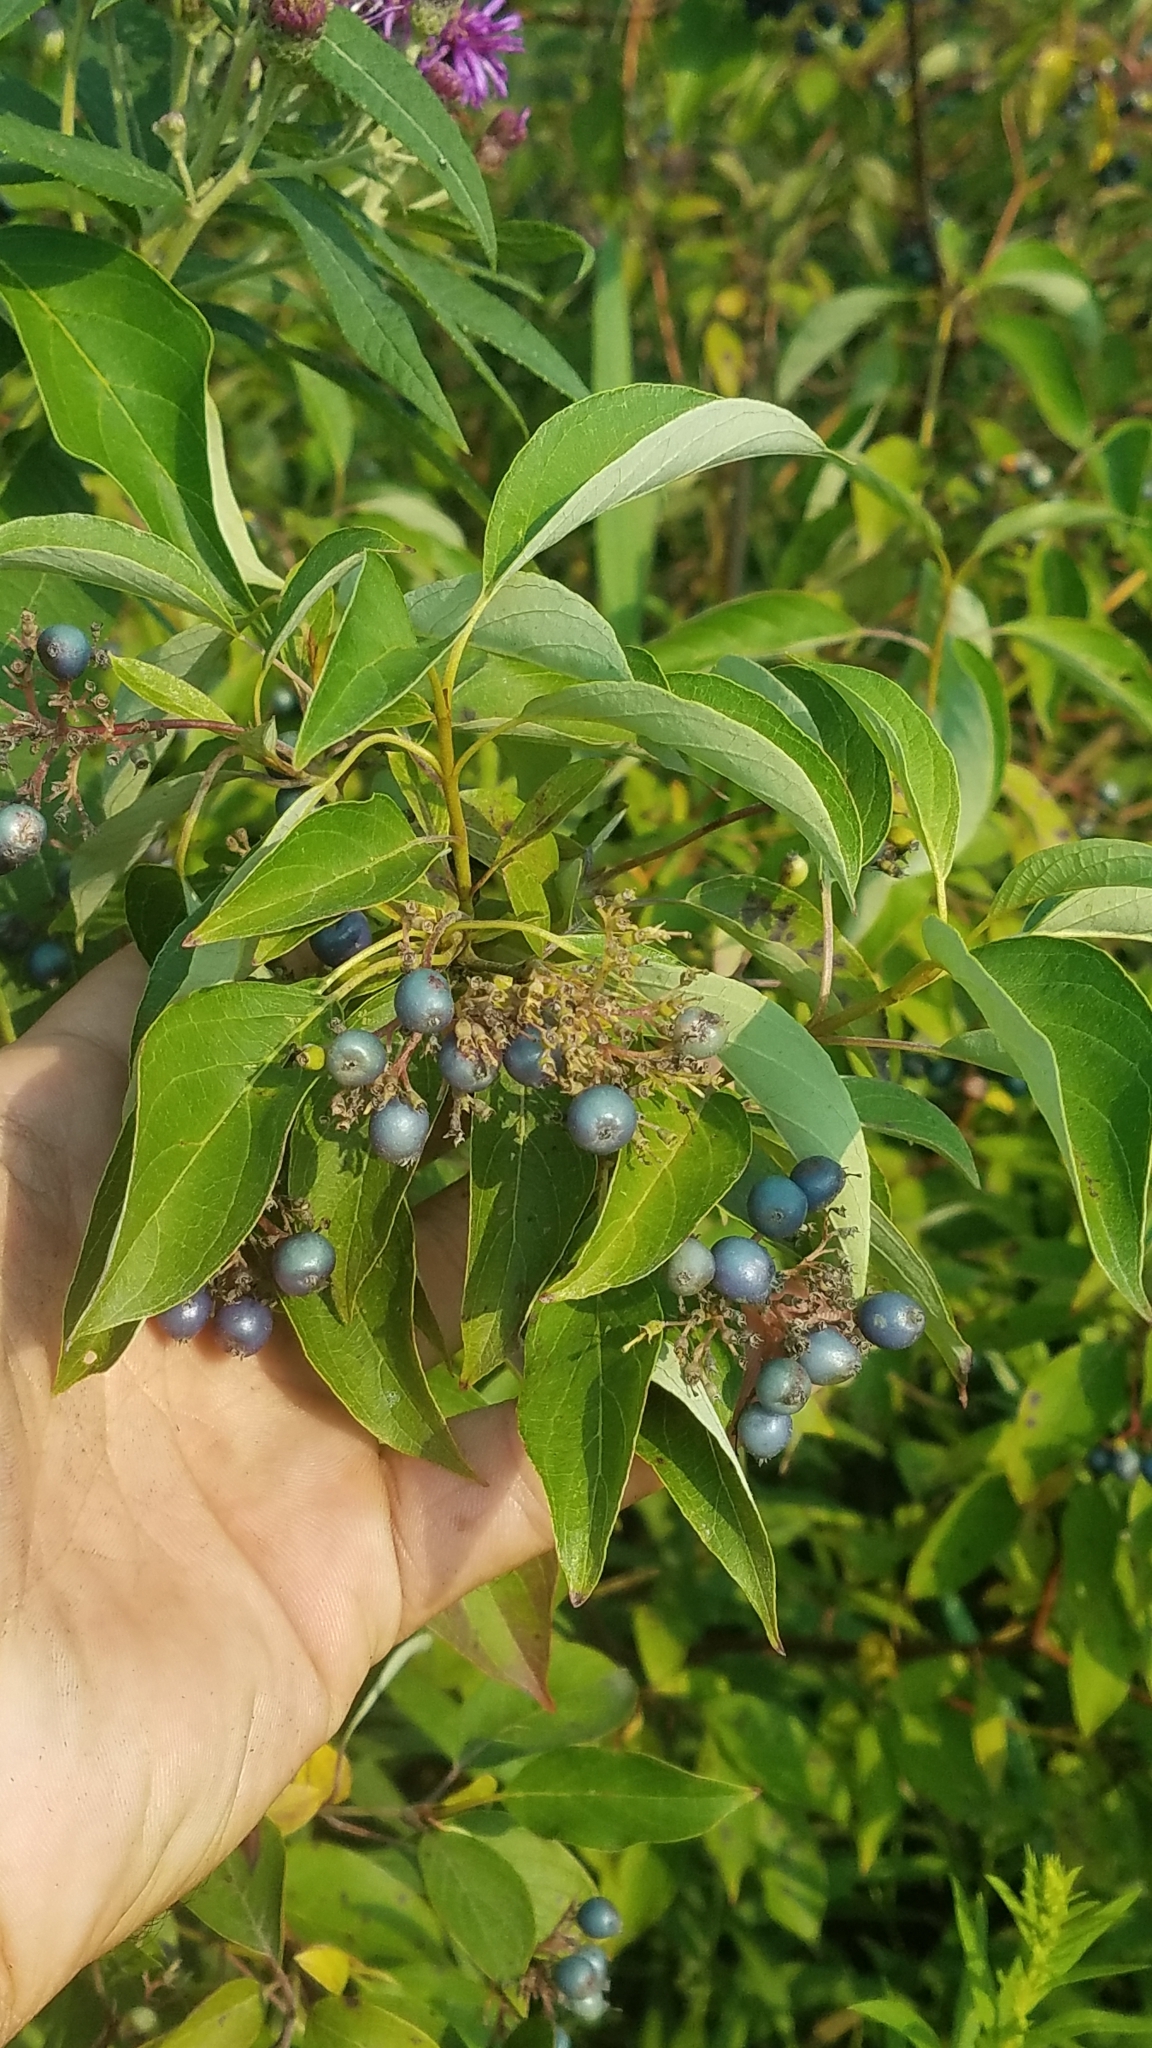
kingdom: Plantae
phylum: Tracheophyta
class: Magnoliopsida
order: Cornales
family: Cornaceae
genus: Cornus
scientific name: Cornus amomum
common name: Silky dogwood
